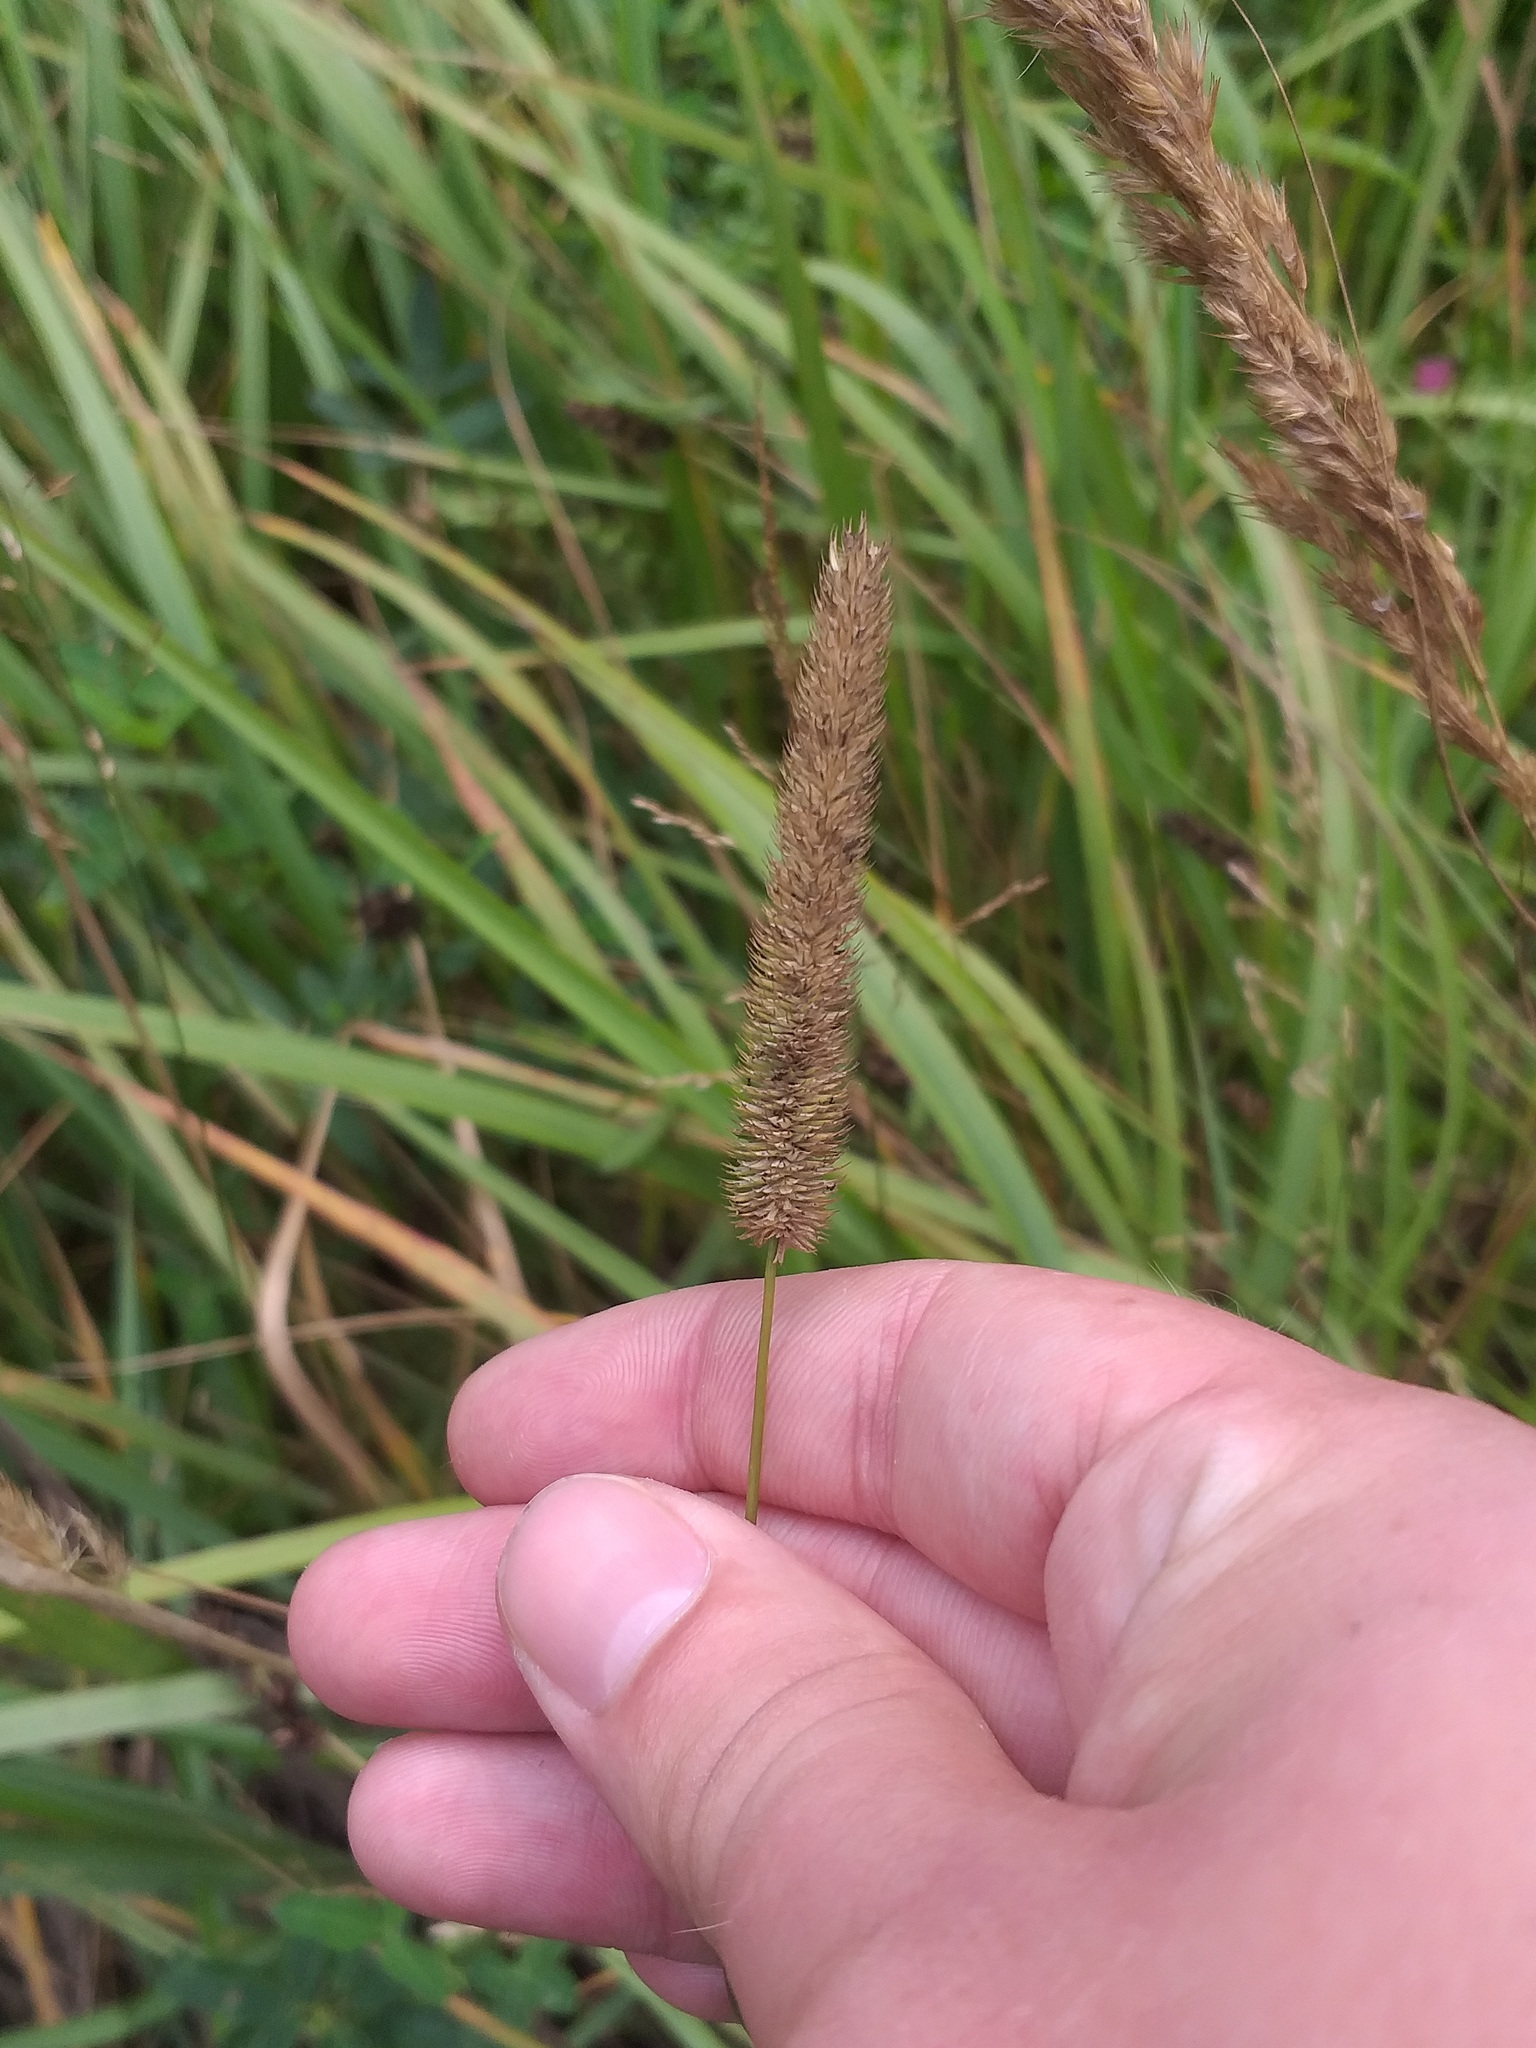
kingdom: Plantae
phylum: Tracheophyta
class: Liliopsida
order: Poales
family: Poaceae
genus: Phleum
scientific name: Phleum pratense
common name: Timothy grass
